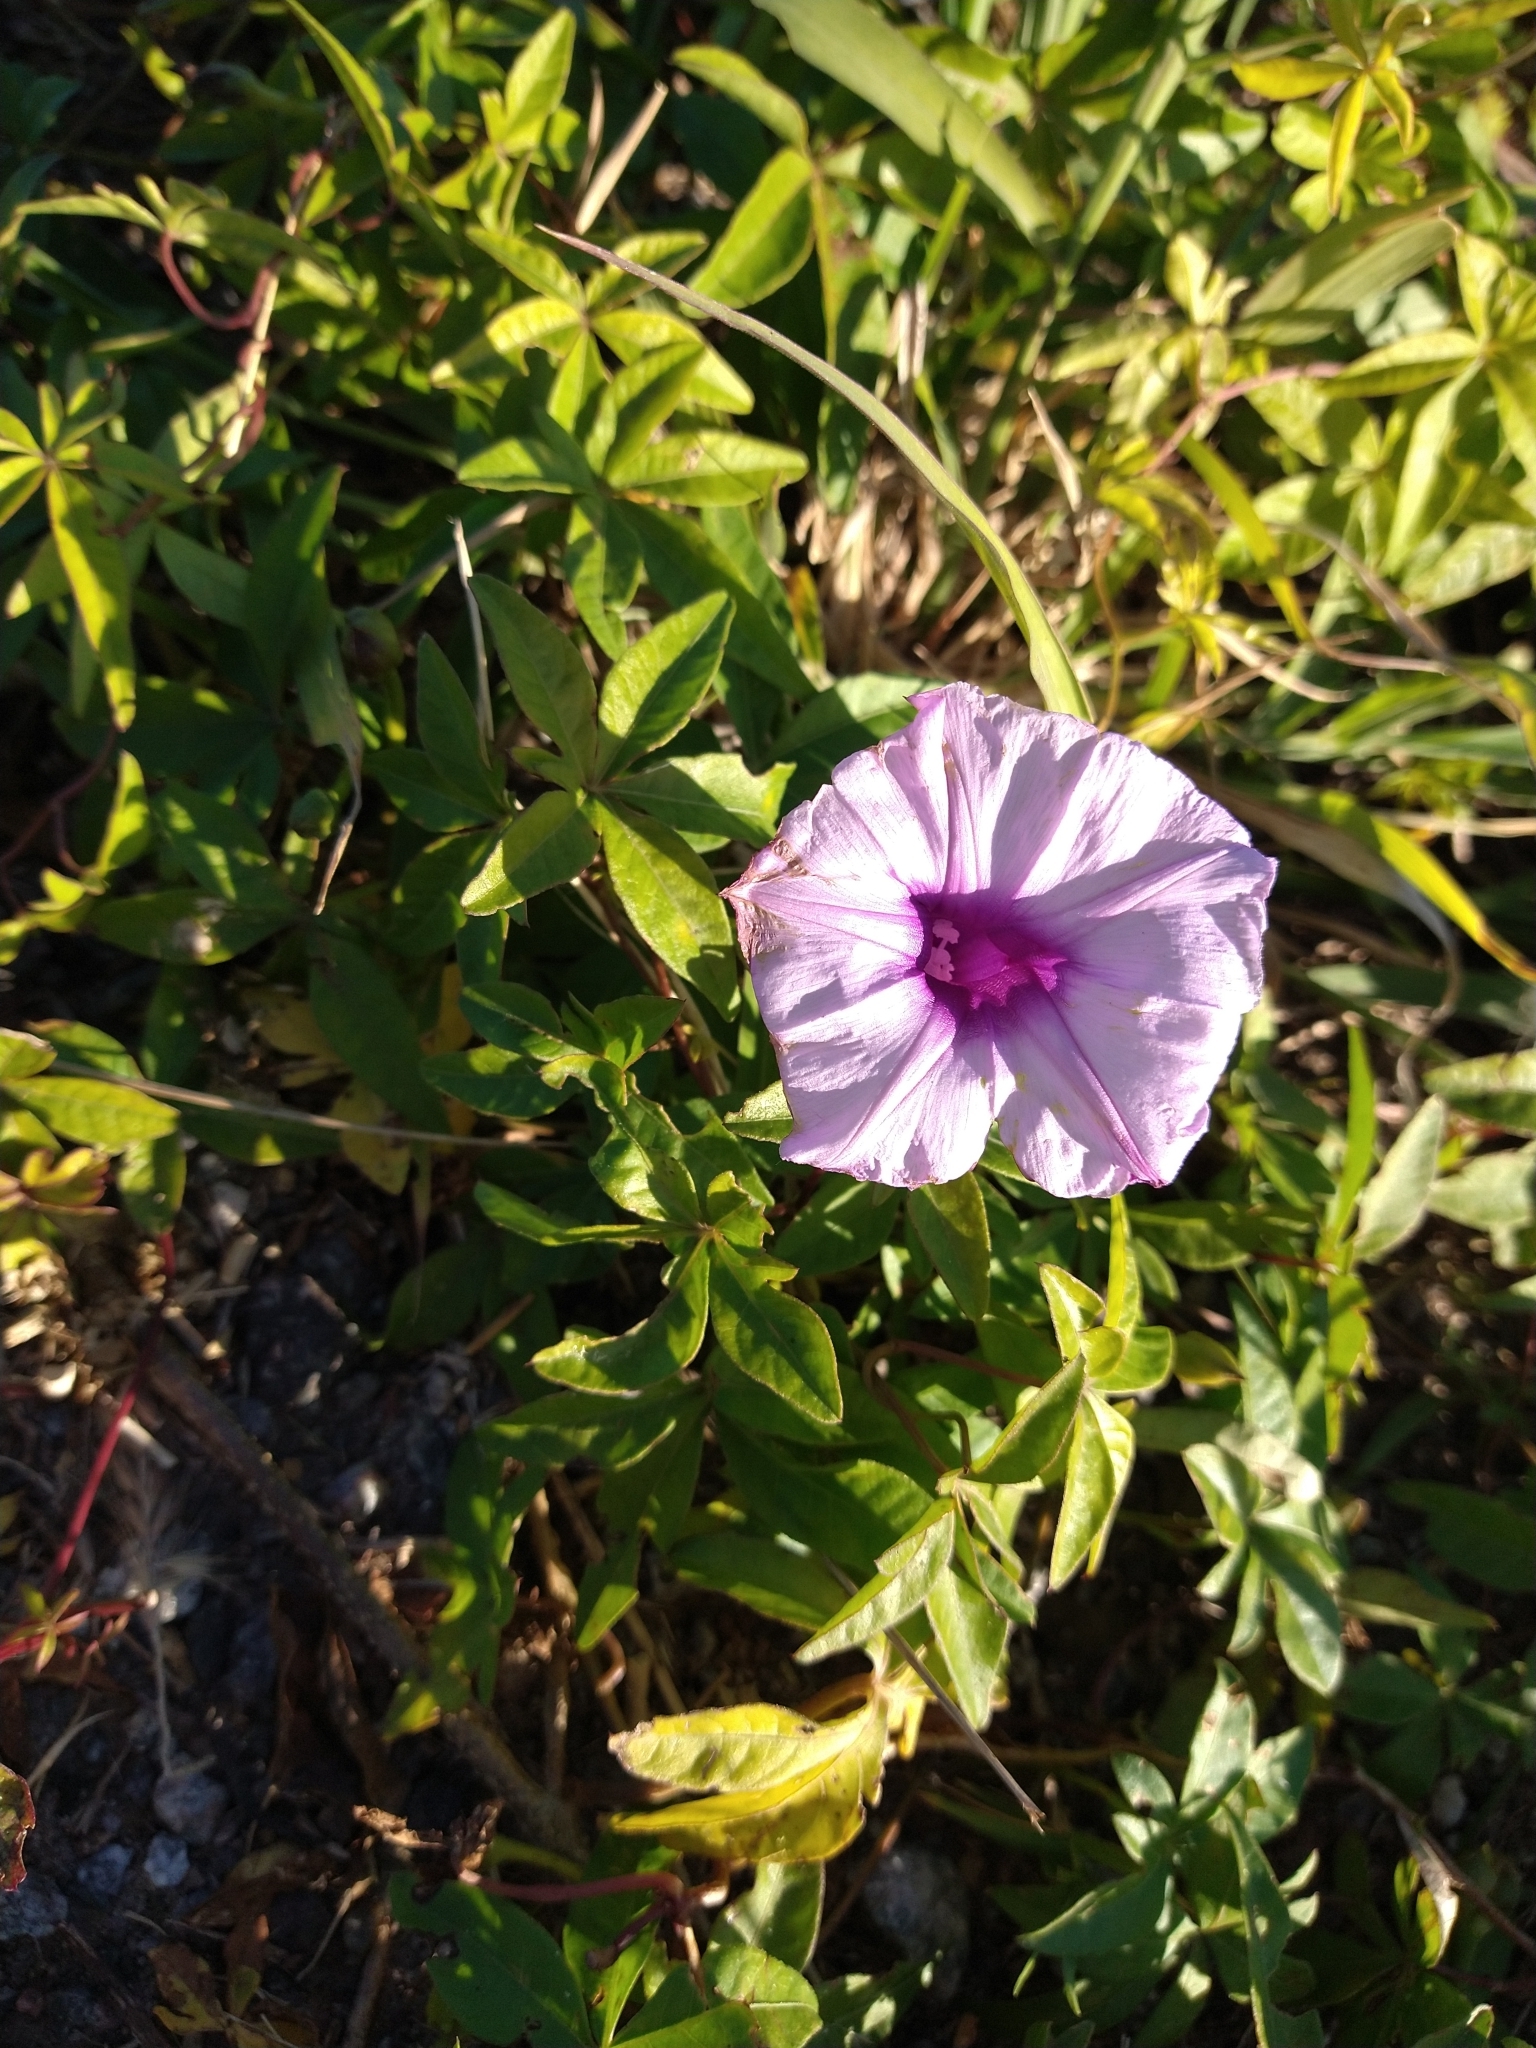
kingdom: Plantae
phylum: Tracheophyta
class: Magnoliopsida
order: Solanales
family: Convolvulaceae
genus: Ipomoea
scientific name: Ipomoea cairica
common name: Mile a minute vine
